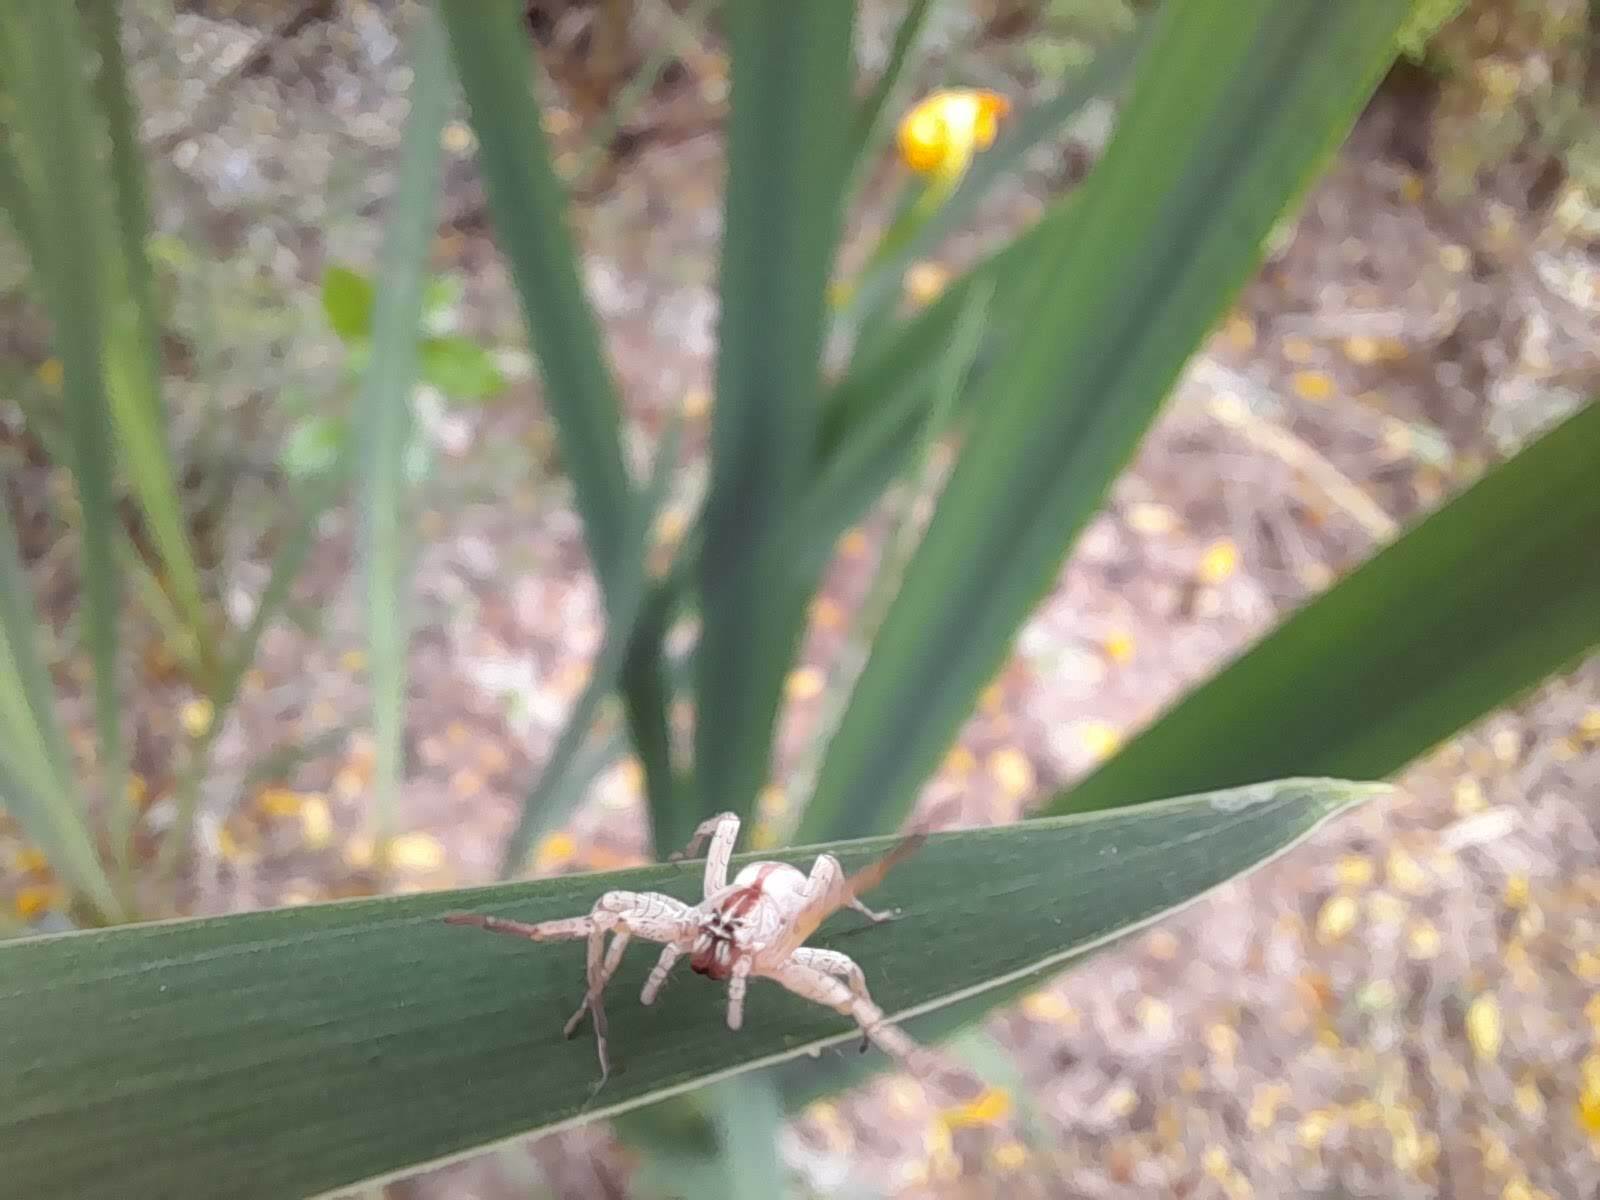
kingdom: Animalia
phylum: Arthropoda
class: Arachnida
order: Araneae
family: Anyphaenidae
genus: Arachosia
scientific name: Arachosia praesignis
